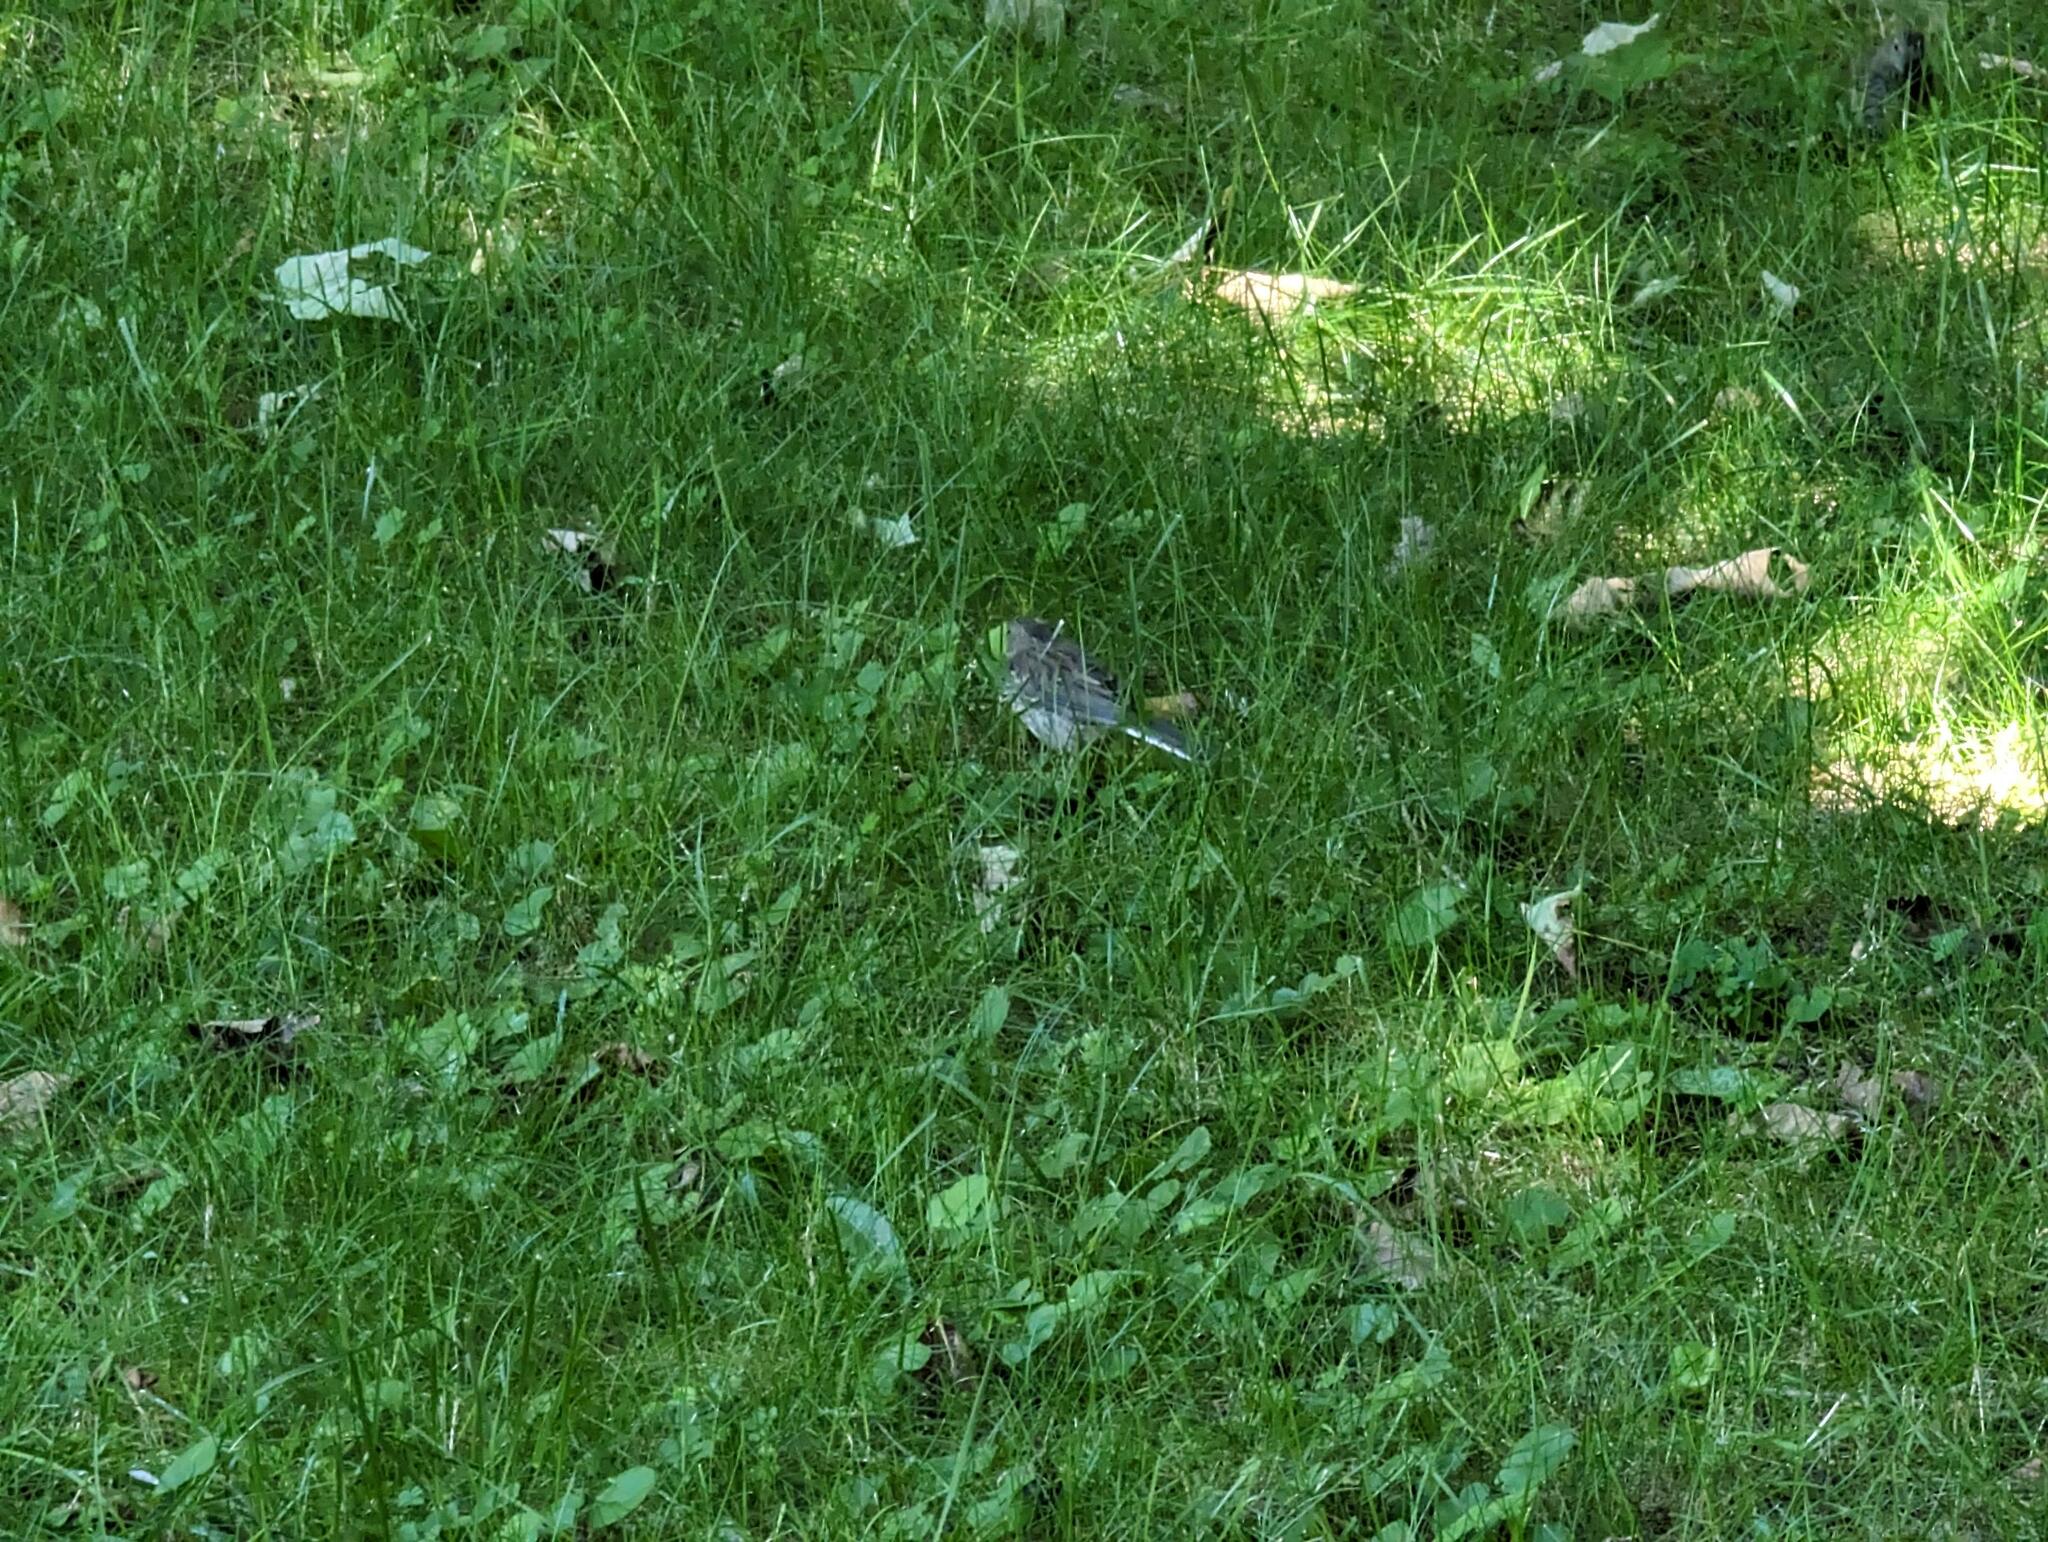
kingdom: Animalia
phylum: Chordata
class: Aves
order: Passeriformes
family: Passerellidae
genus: Junco
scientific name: Junco hyemalis
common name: Dark-eyed junco
